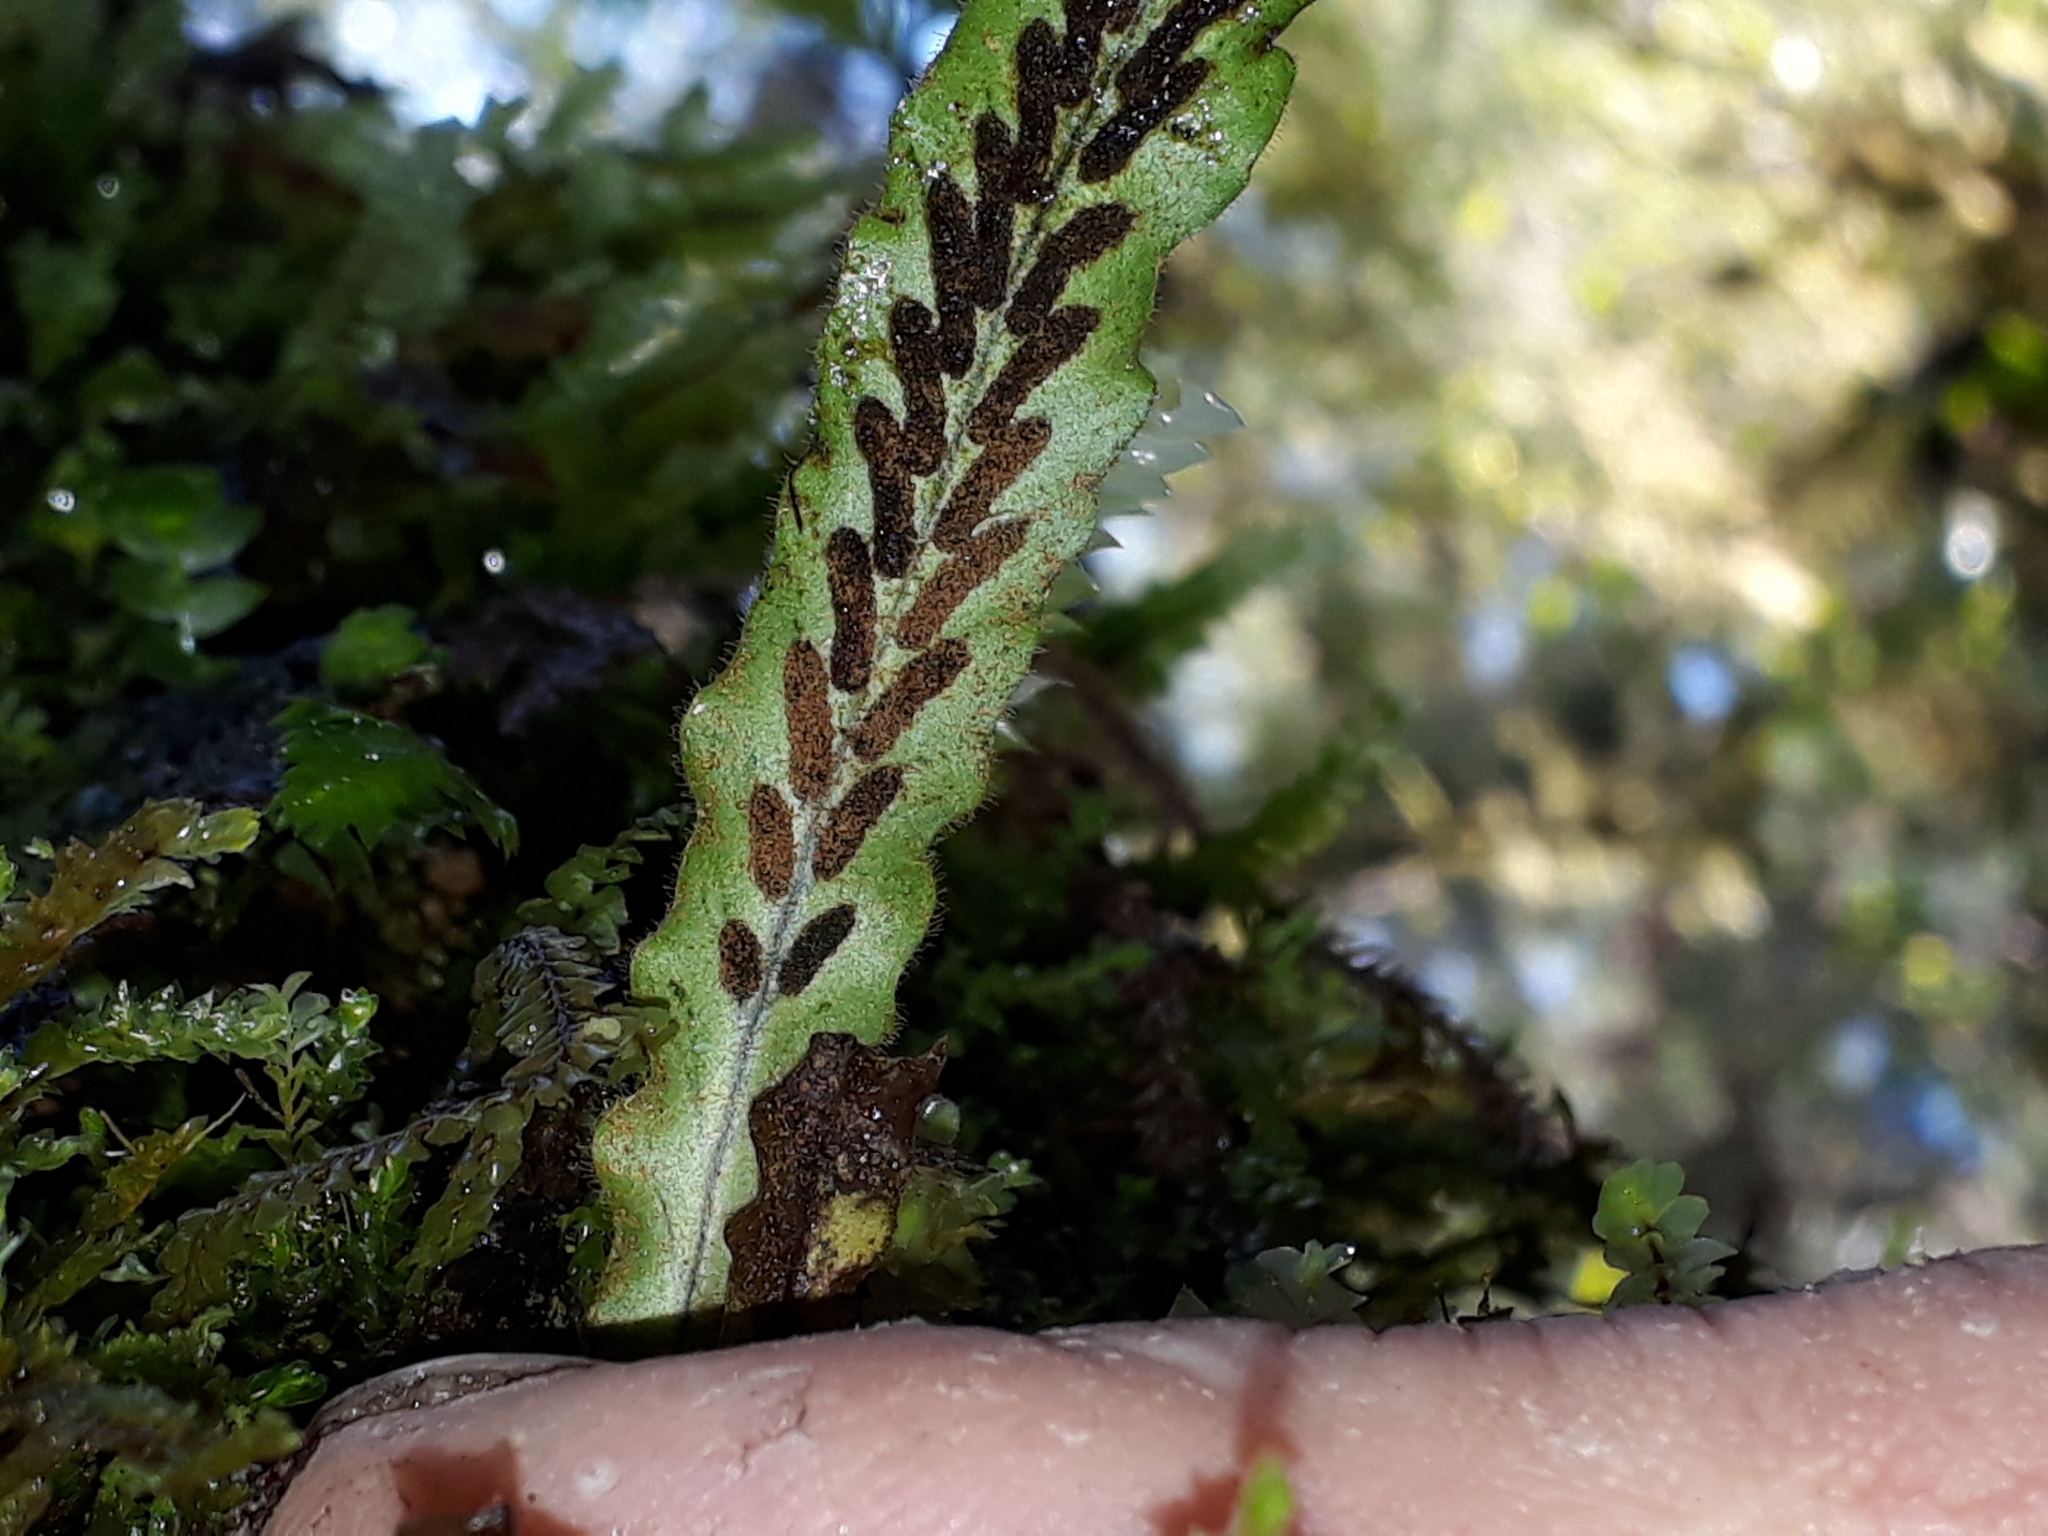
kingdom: Plantae
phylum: Tracheophyta
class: Polypodiopsida
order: Polypodiales
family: Polypodiaceae
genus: Notogrammitis
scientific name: Notogrammitis pseudociliata
